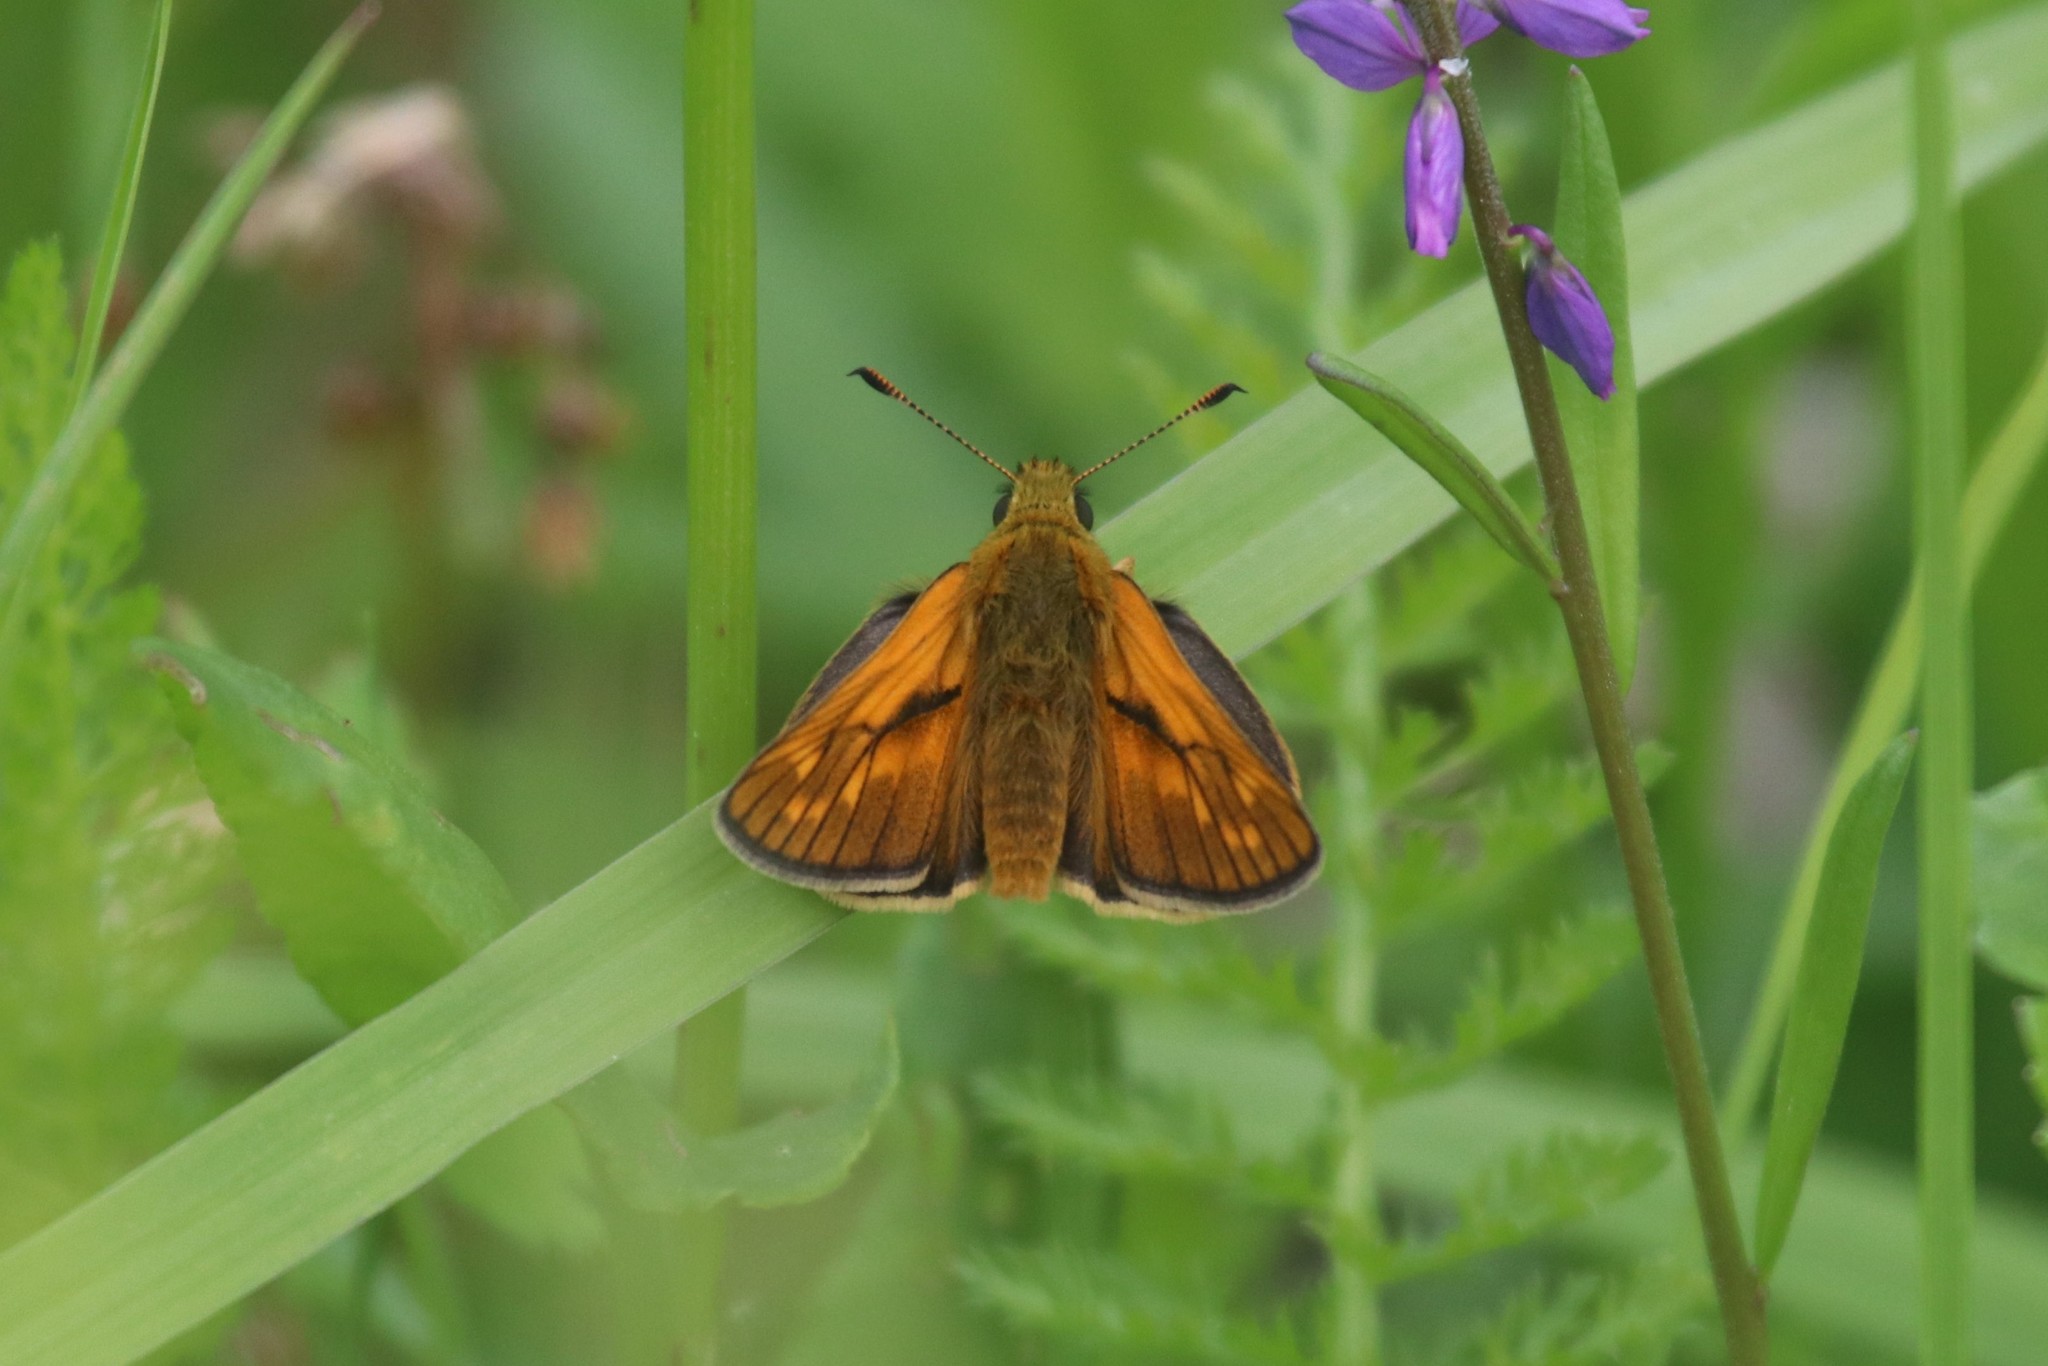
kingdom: Animalia
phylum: Arthropoda
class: Insecta
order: Lepidoptera
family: Hesperiidae
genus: Ochlodes
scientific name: Ochlodes venata
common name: Large skipper
